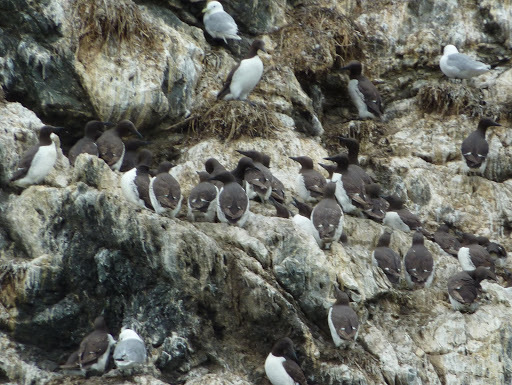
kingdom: Animalia
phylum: Chordata
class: Aves
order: Charadriiformes
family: Alcidae
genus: Uria
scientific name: Uria aalge
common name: Common murre
